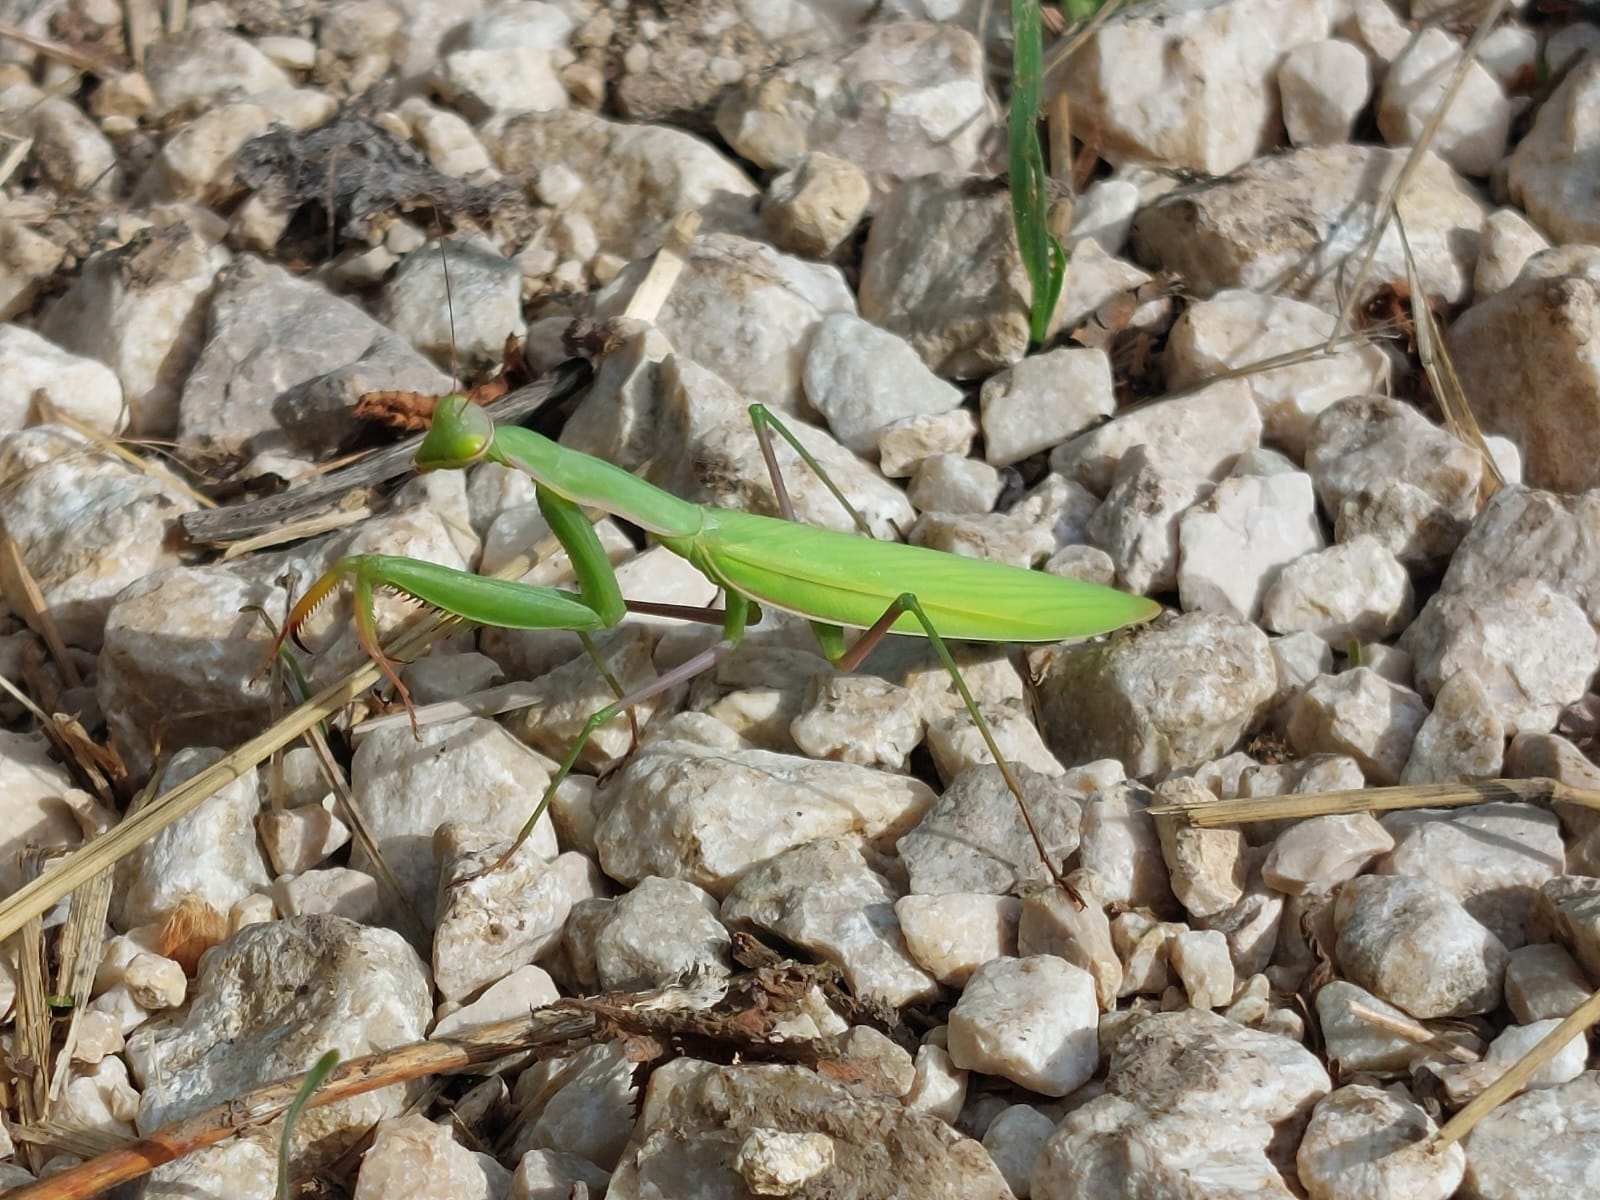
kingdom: Animalia
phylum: Arthropoda
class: Insecta
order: Mantodea
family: Mantidae
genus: Mantis
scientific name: Mantis religiosa
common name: Praying mantis
